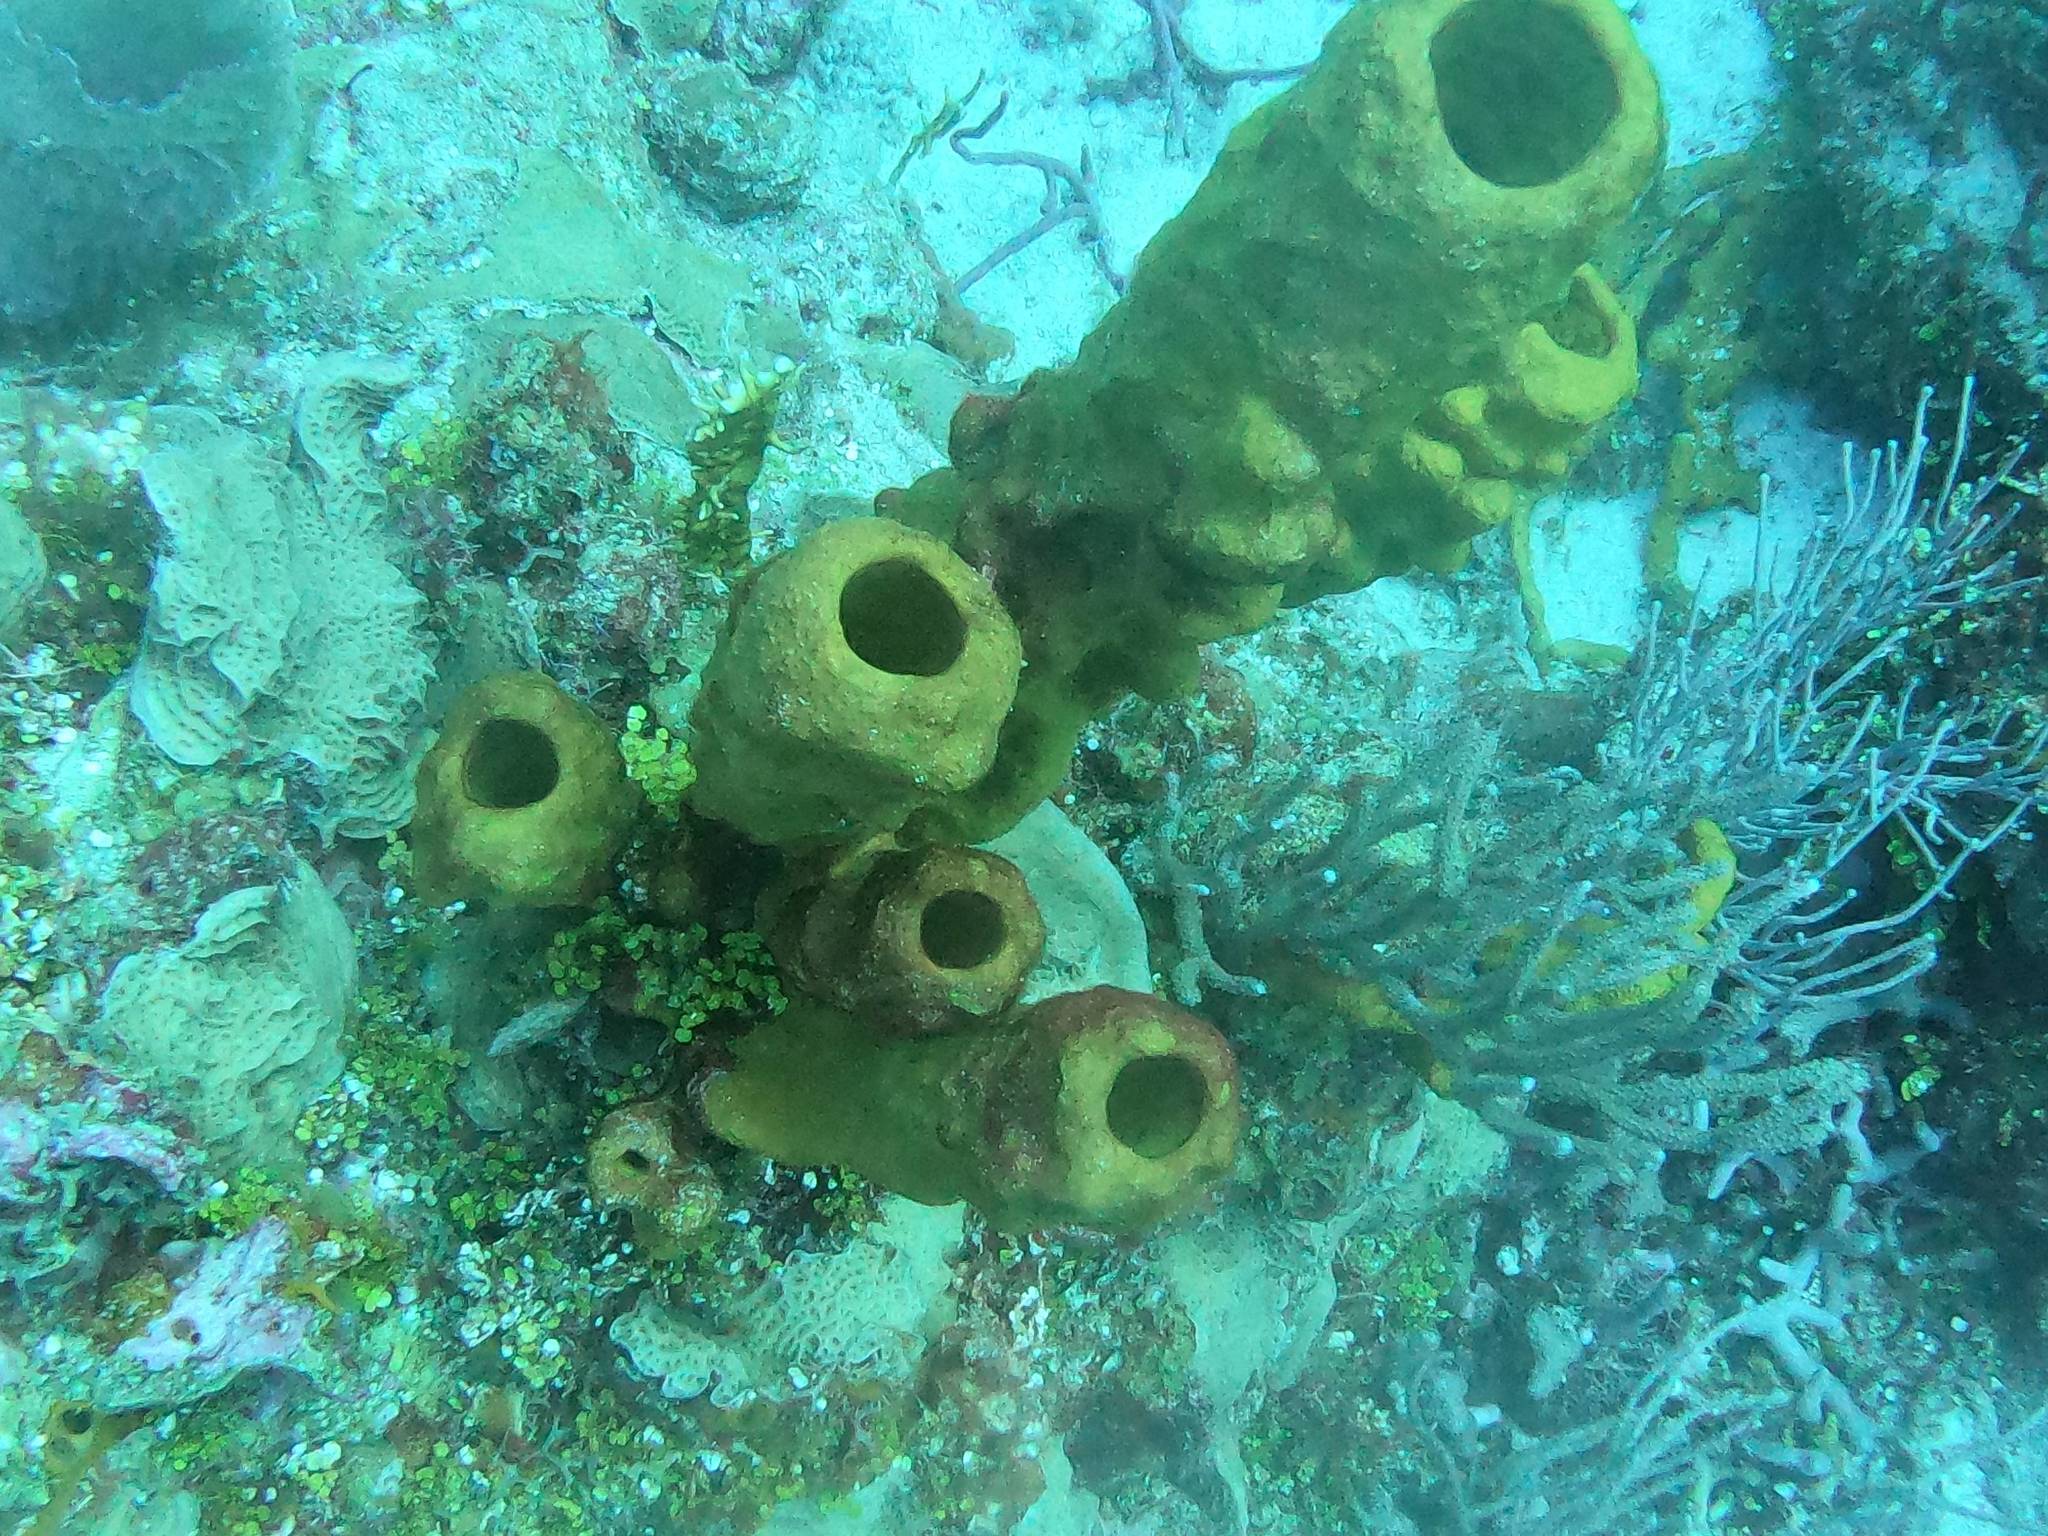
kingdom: Animalia
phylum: Porifera
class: Demospongiae
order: Verongiida
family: Aplysinidae
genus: Aplysina
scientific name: Aplysina fistularis
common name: Candle sponge
